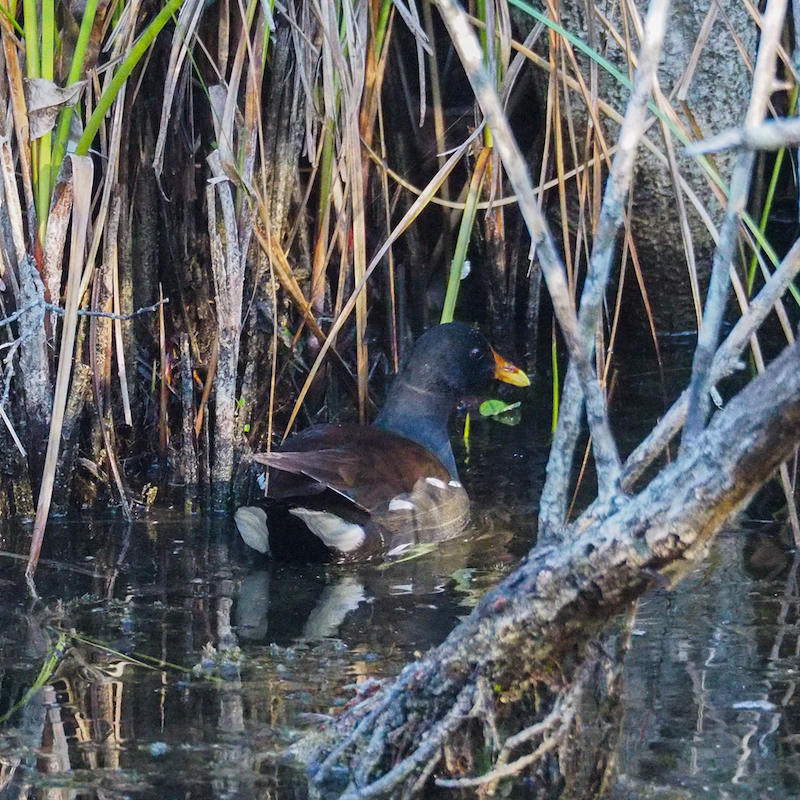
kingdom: Animalia
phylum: Chordata
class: Aves
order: Gruiformes
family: Rallidae
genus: Gallinula
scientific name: Gallinula chloropus
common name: Common moorhen
